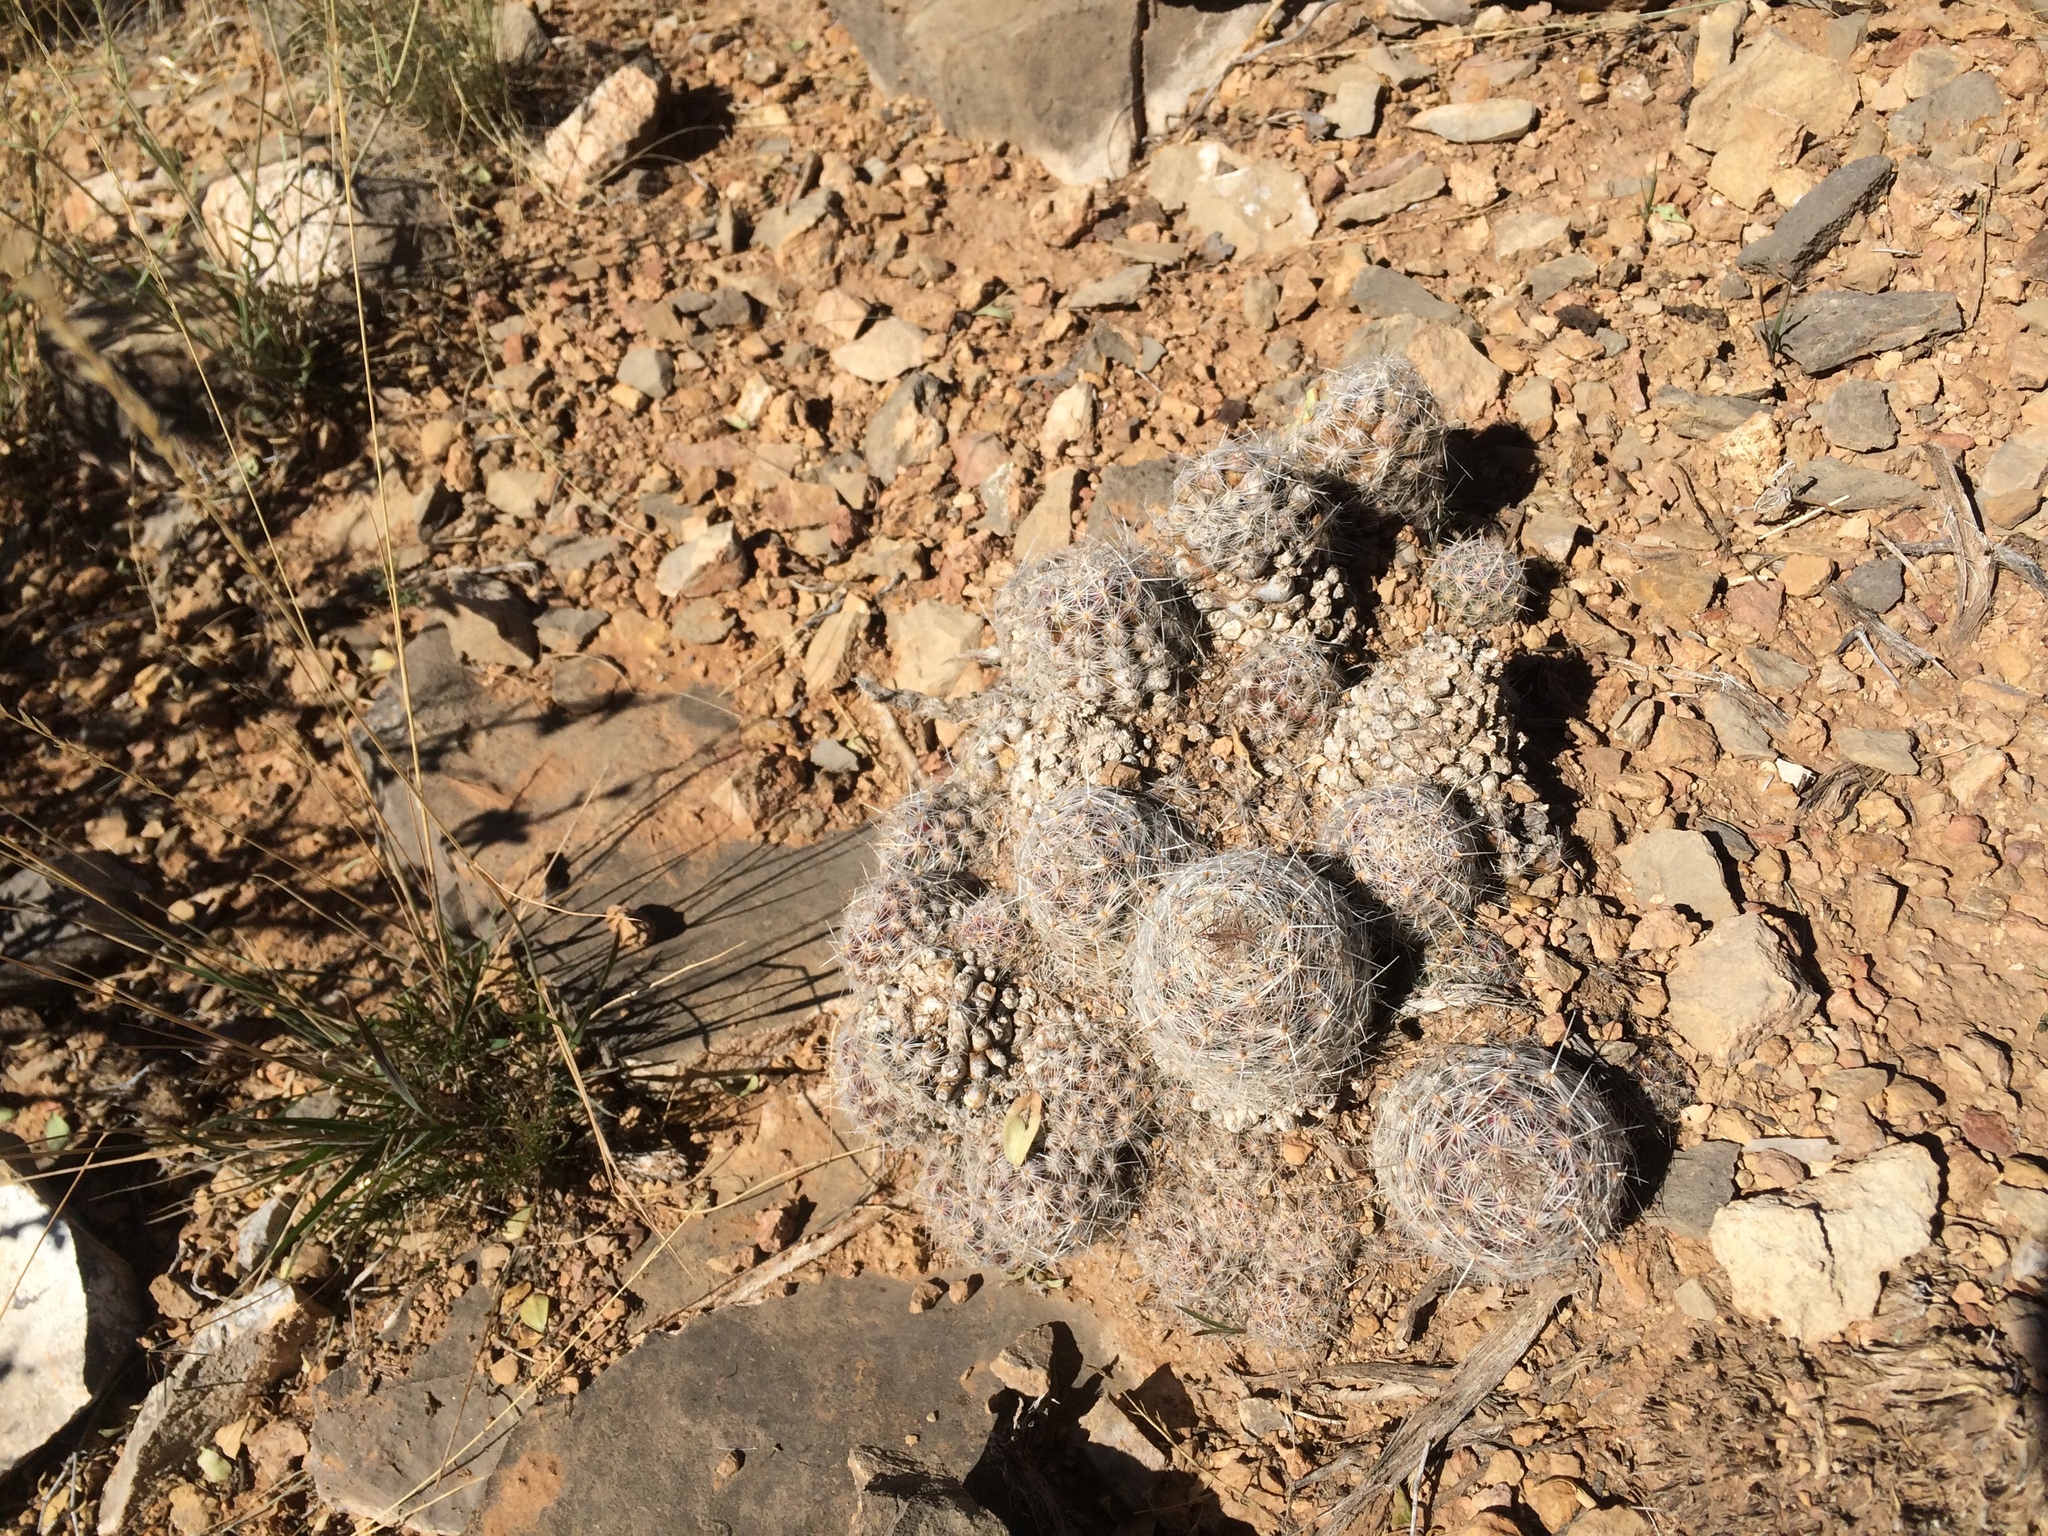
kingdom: Plantae
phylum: Tracheophyta
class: Magnoliopsida
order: Caryophyllales
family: Cactaceae
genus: Pelecyphora
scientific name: Pelecyphora tuberculosa
